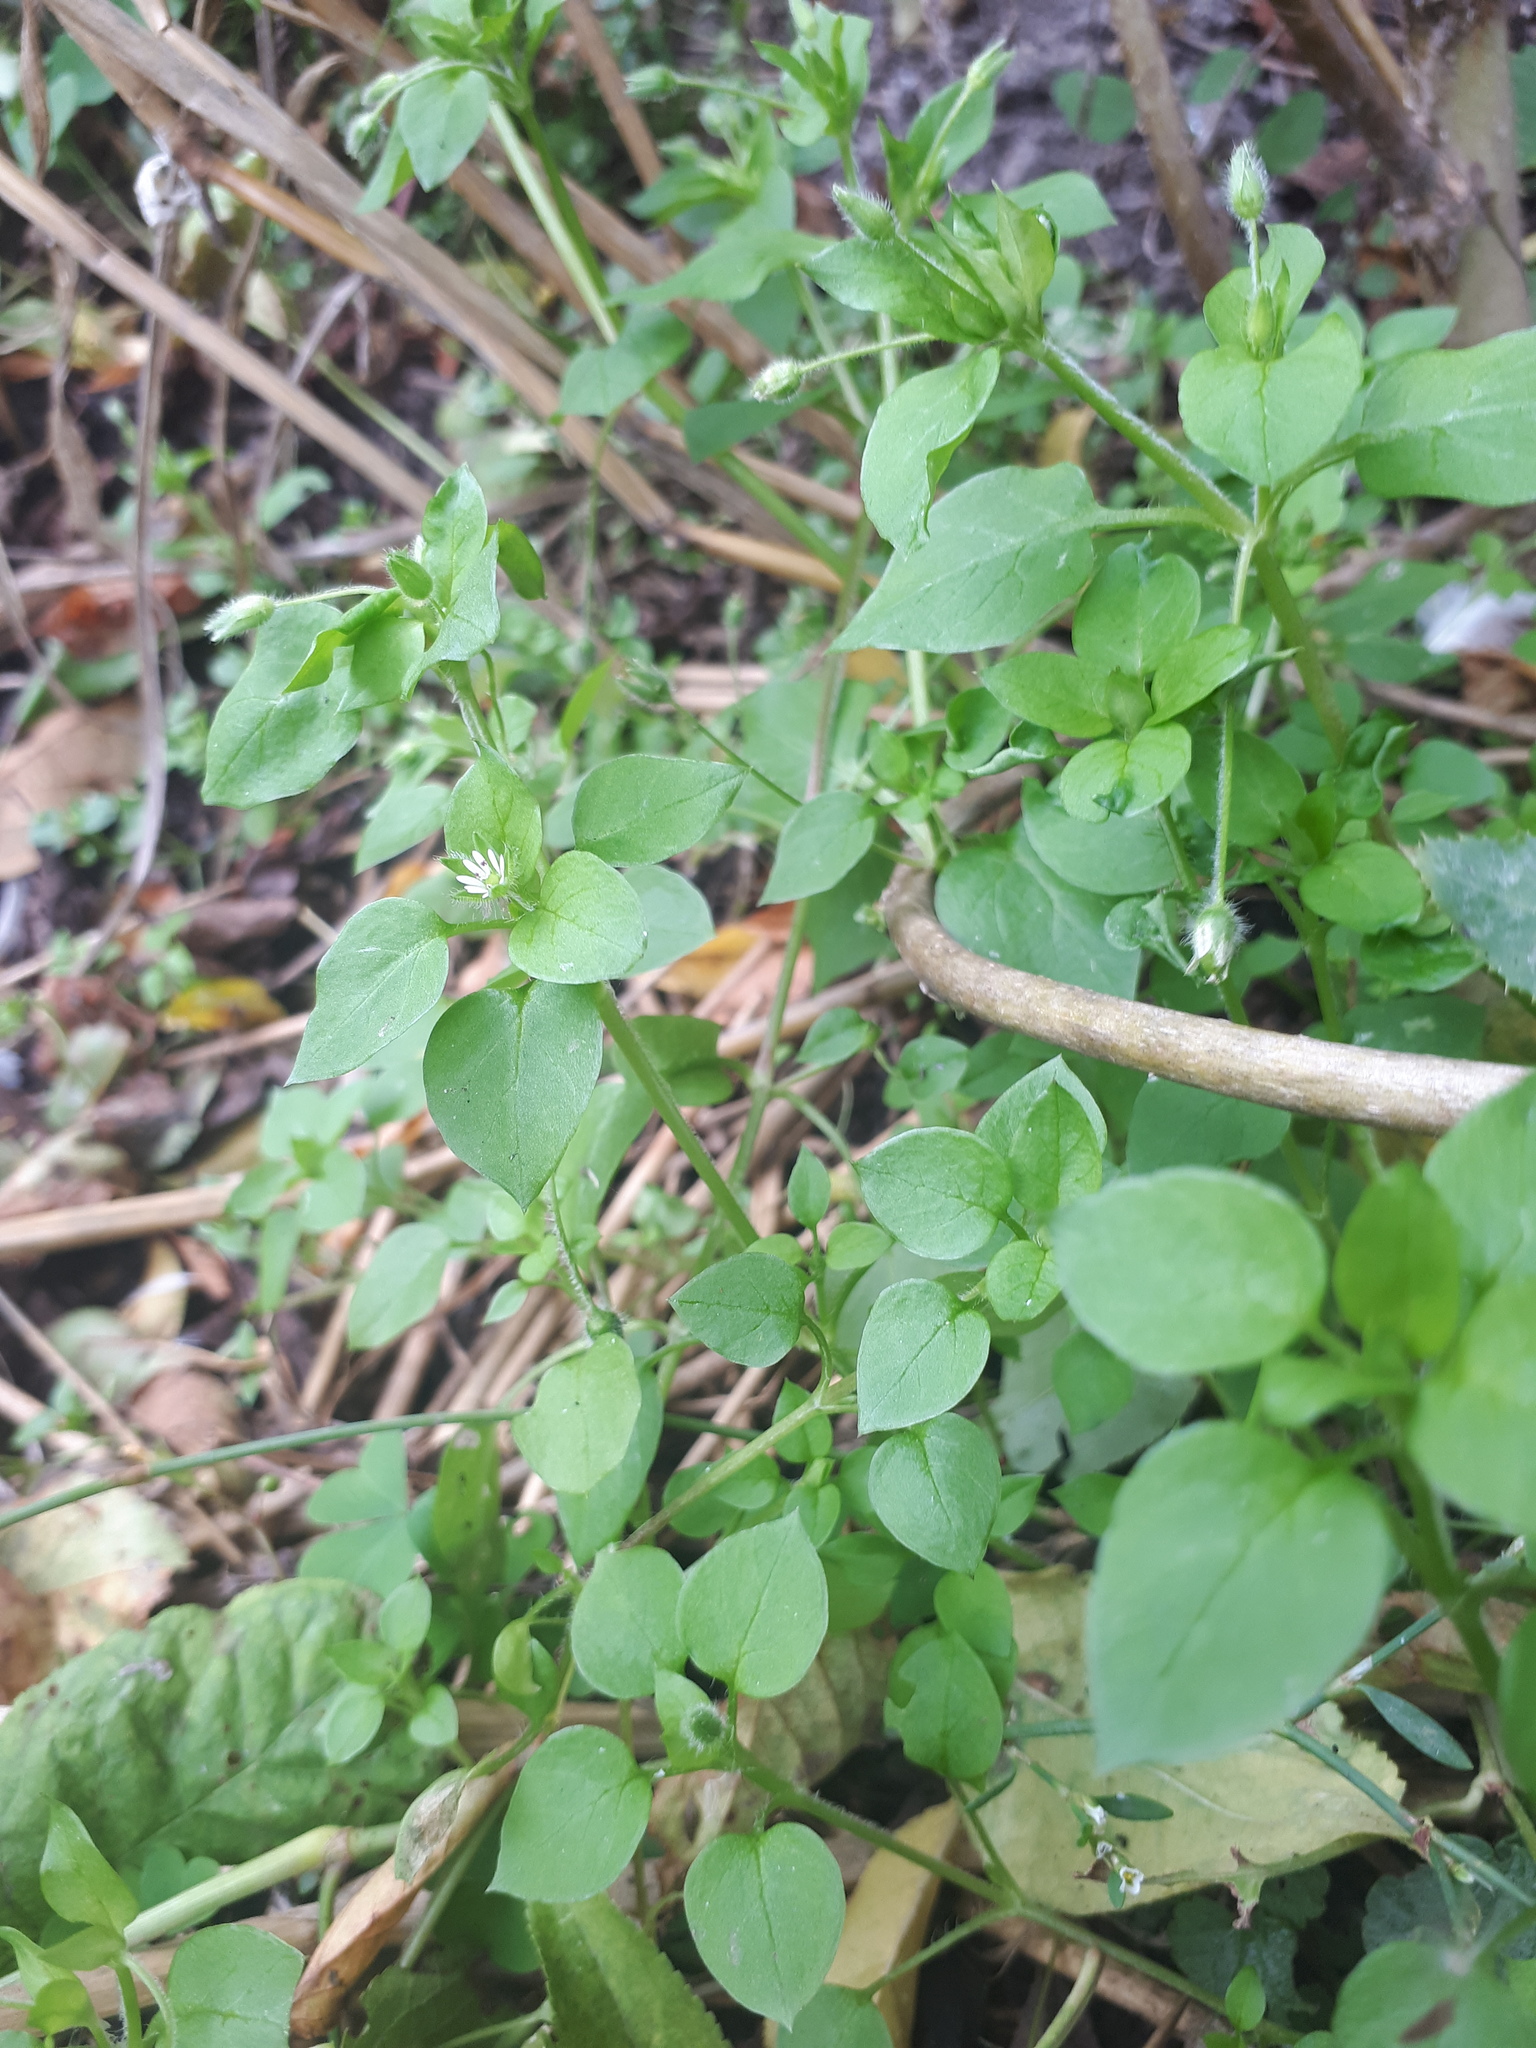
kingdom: Plantae
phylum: Tracheophyta
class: Magnoliopsida
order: Caryophyllales
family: Caryophyllaceae
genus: Stellaria
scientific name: Stellaria media
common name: Common chickweed
